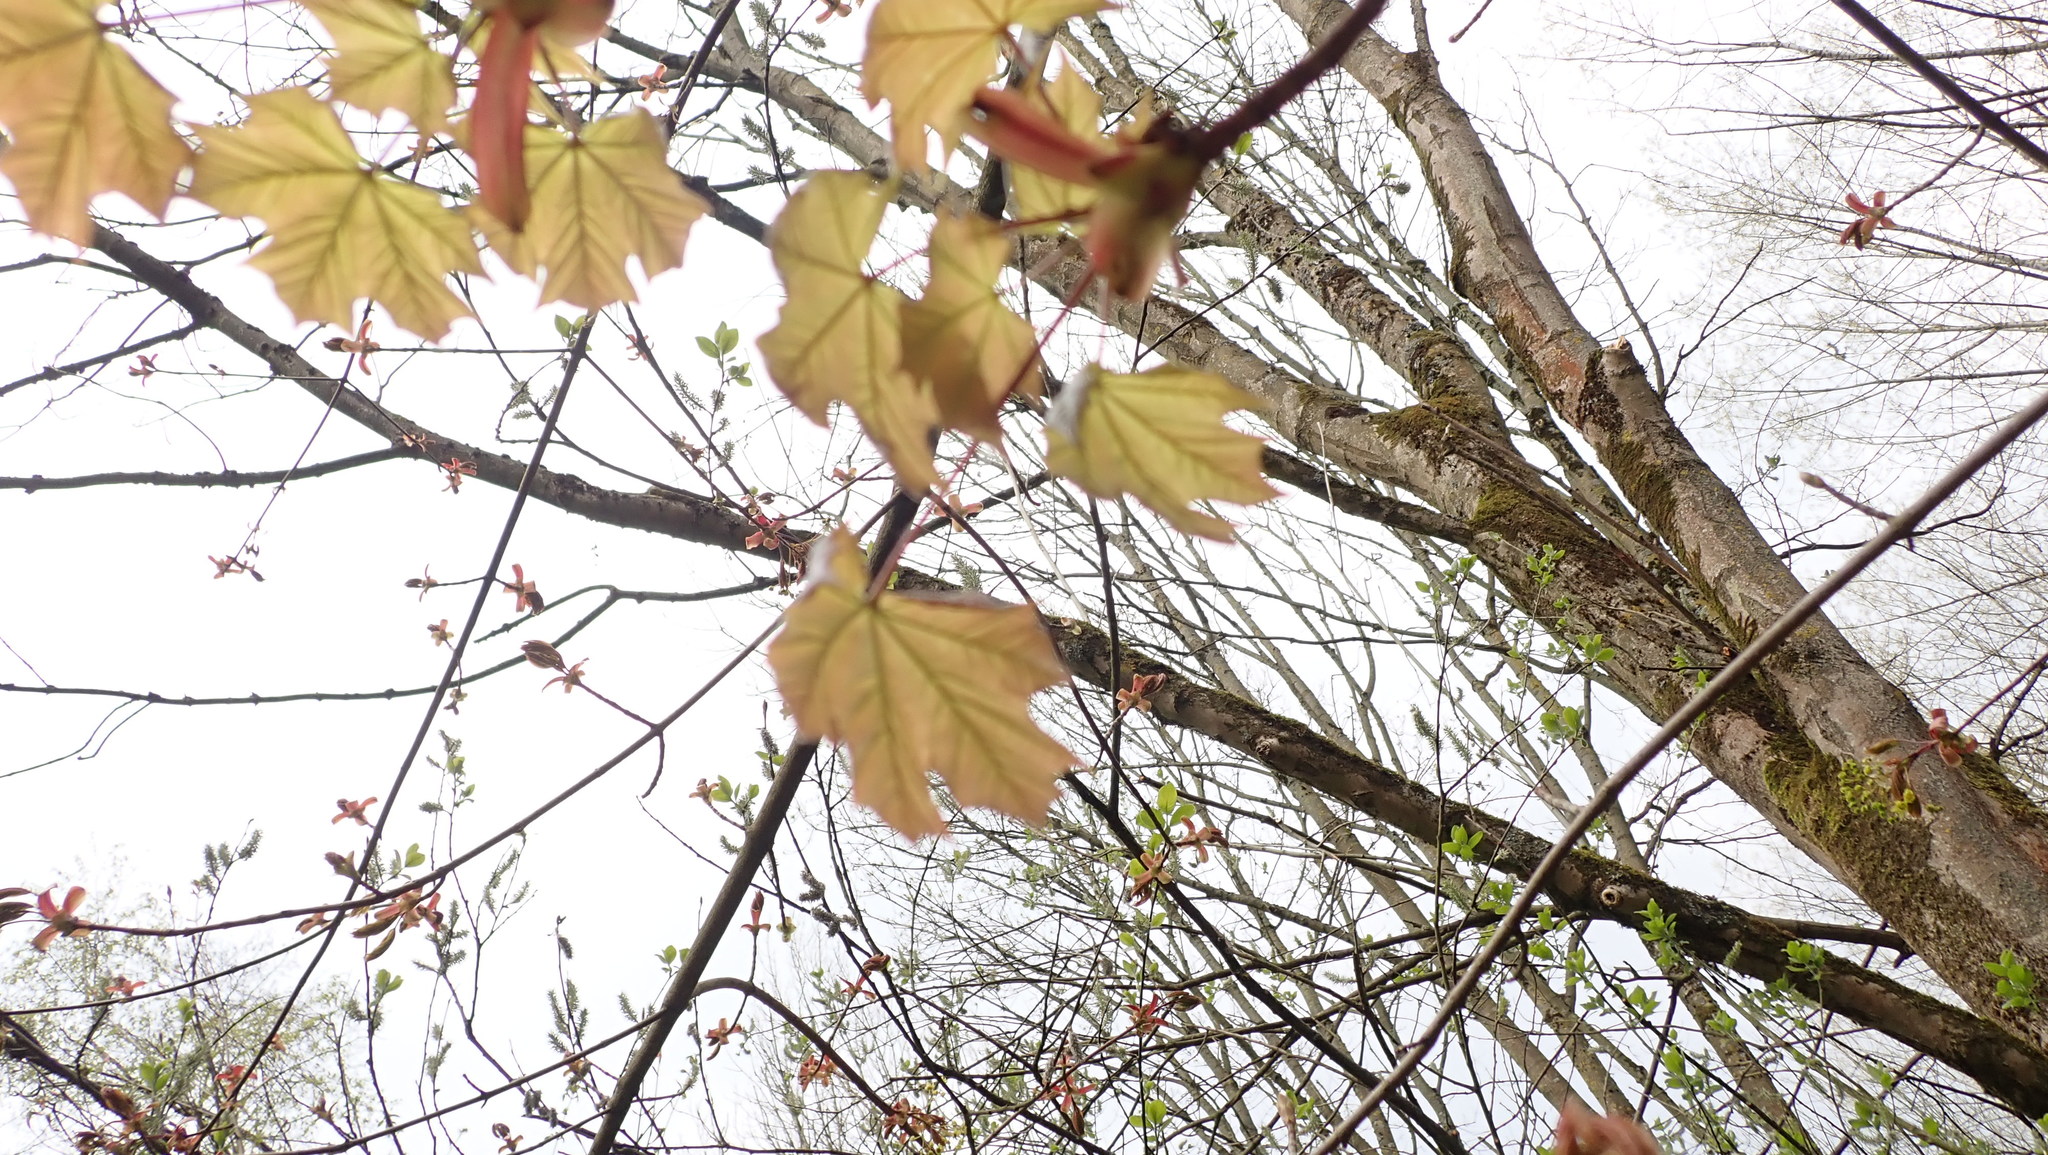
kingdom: Plantae
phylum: Tracheophyta
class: Magnoliopsida
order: Sapindales
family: Sapindaceae
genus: Acer
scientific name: Acer platanoides
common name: Norway maple
